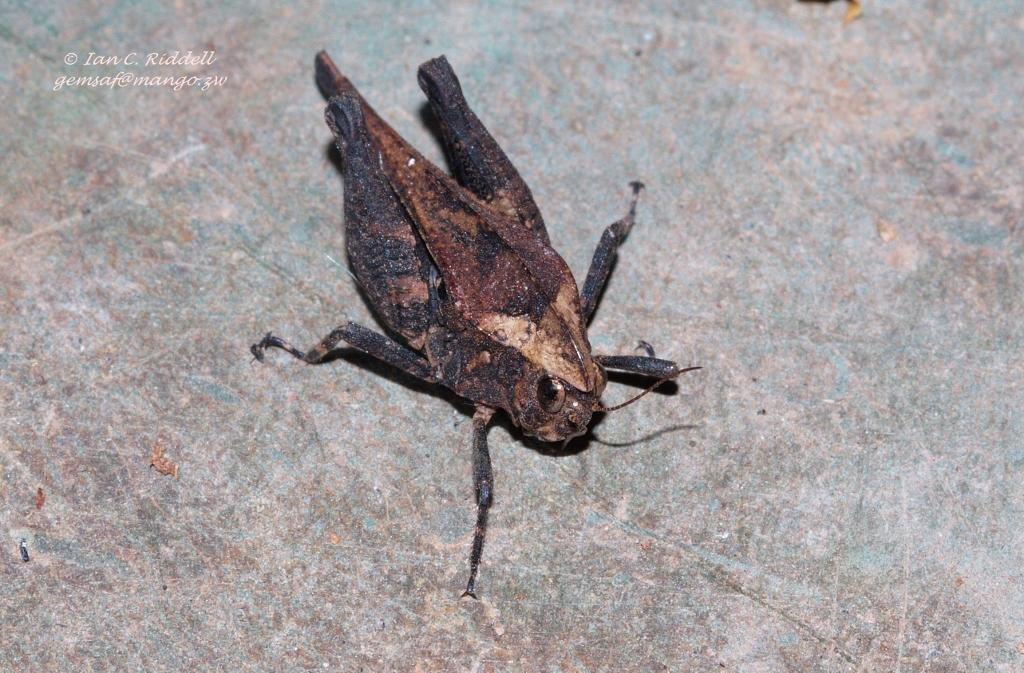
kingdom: Animalia
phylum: Arthropoda
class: Insecta
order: Orthoptera
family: Tetrigidae
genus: Phloeonotus
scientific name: Phloeonotus humilis
